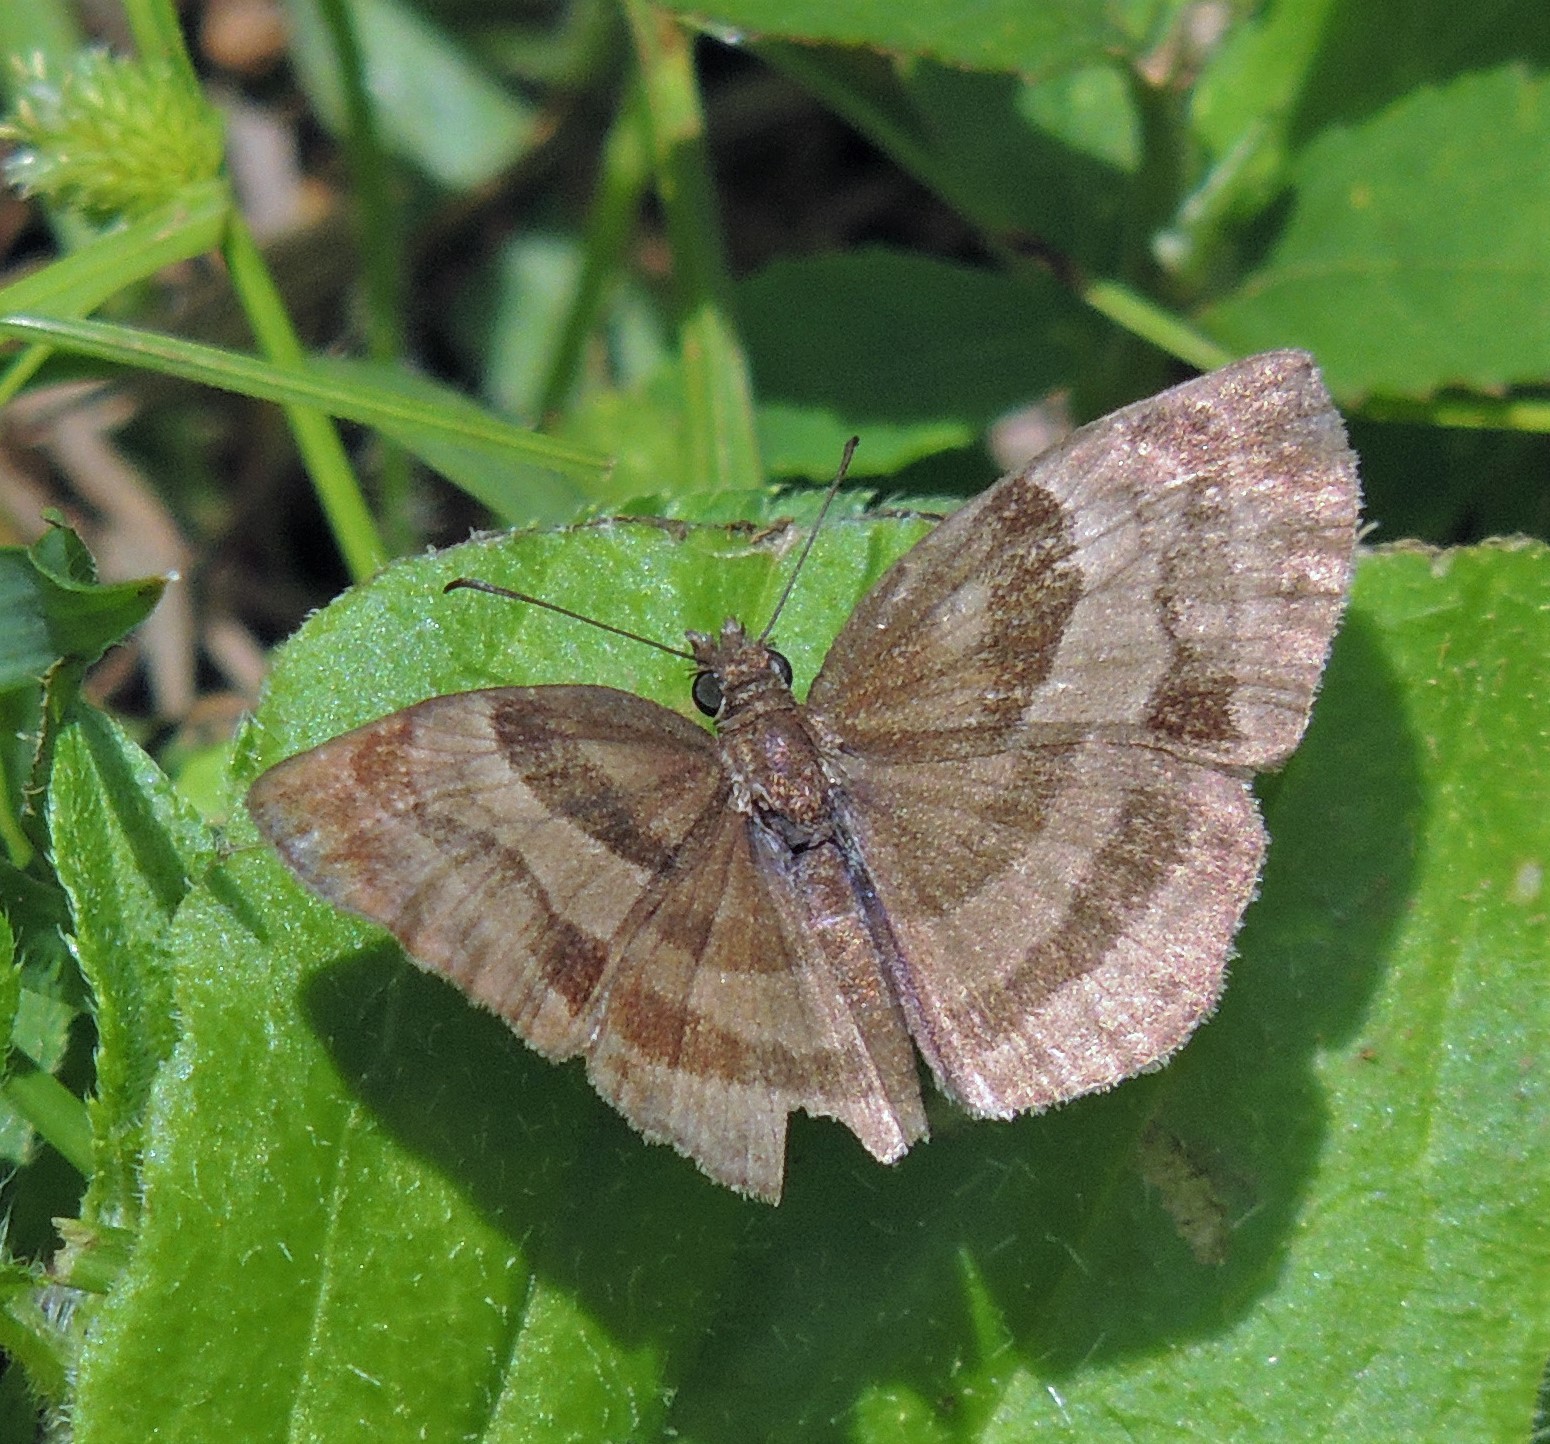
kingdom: Animalia
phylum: Arthropoda
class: Insecta
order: Lepidoptera
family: Hesperiidae
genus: Trina
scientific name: Trina geometrina
